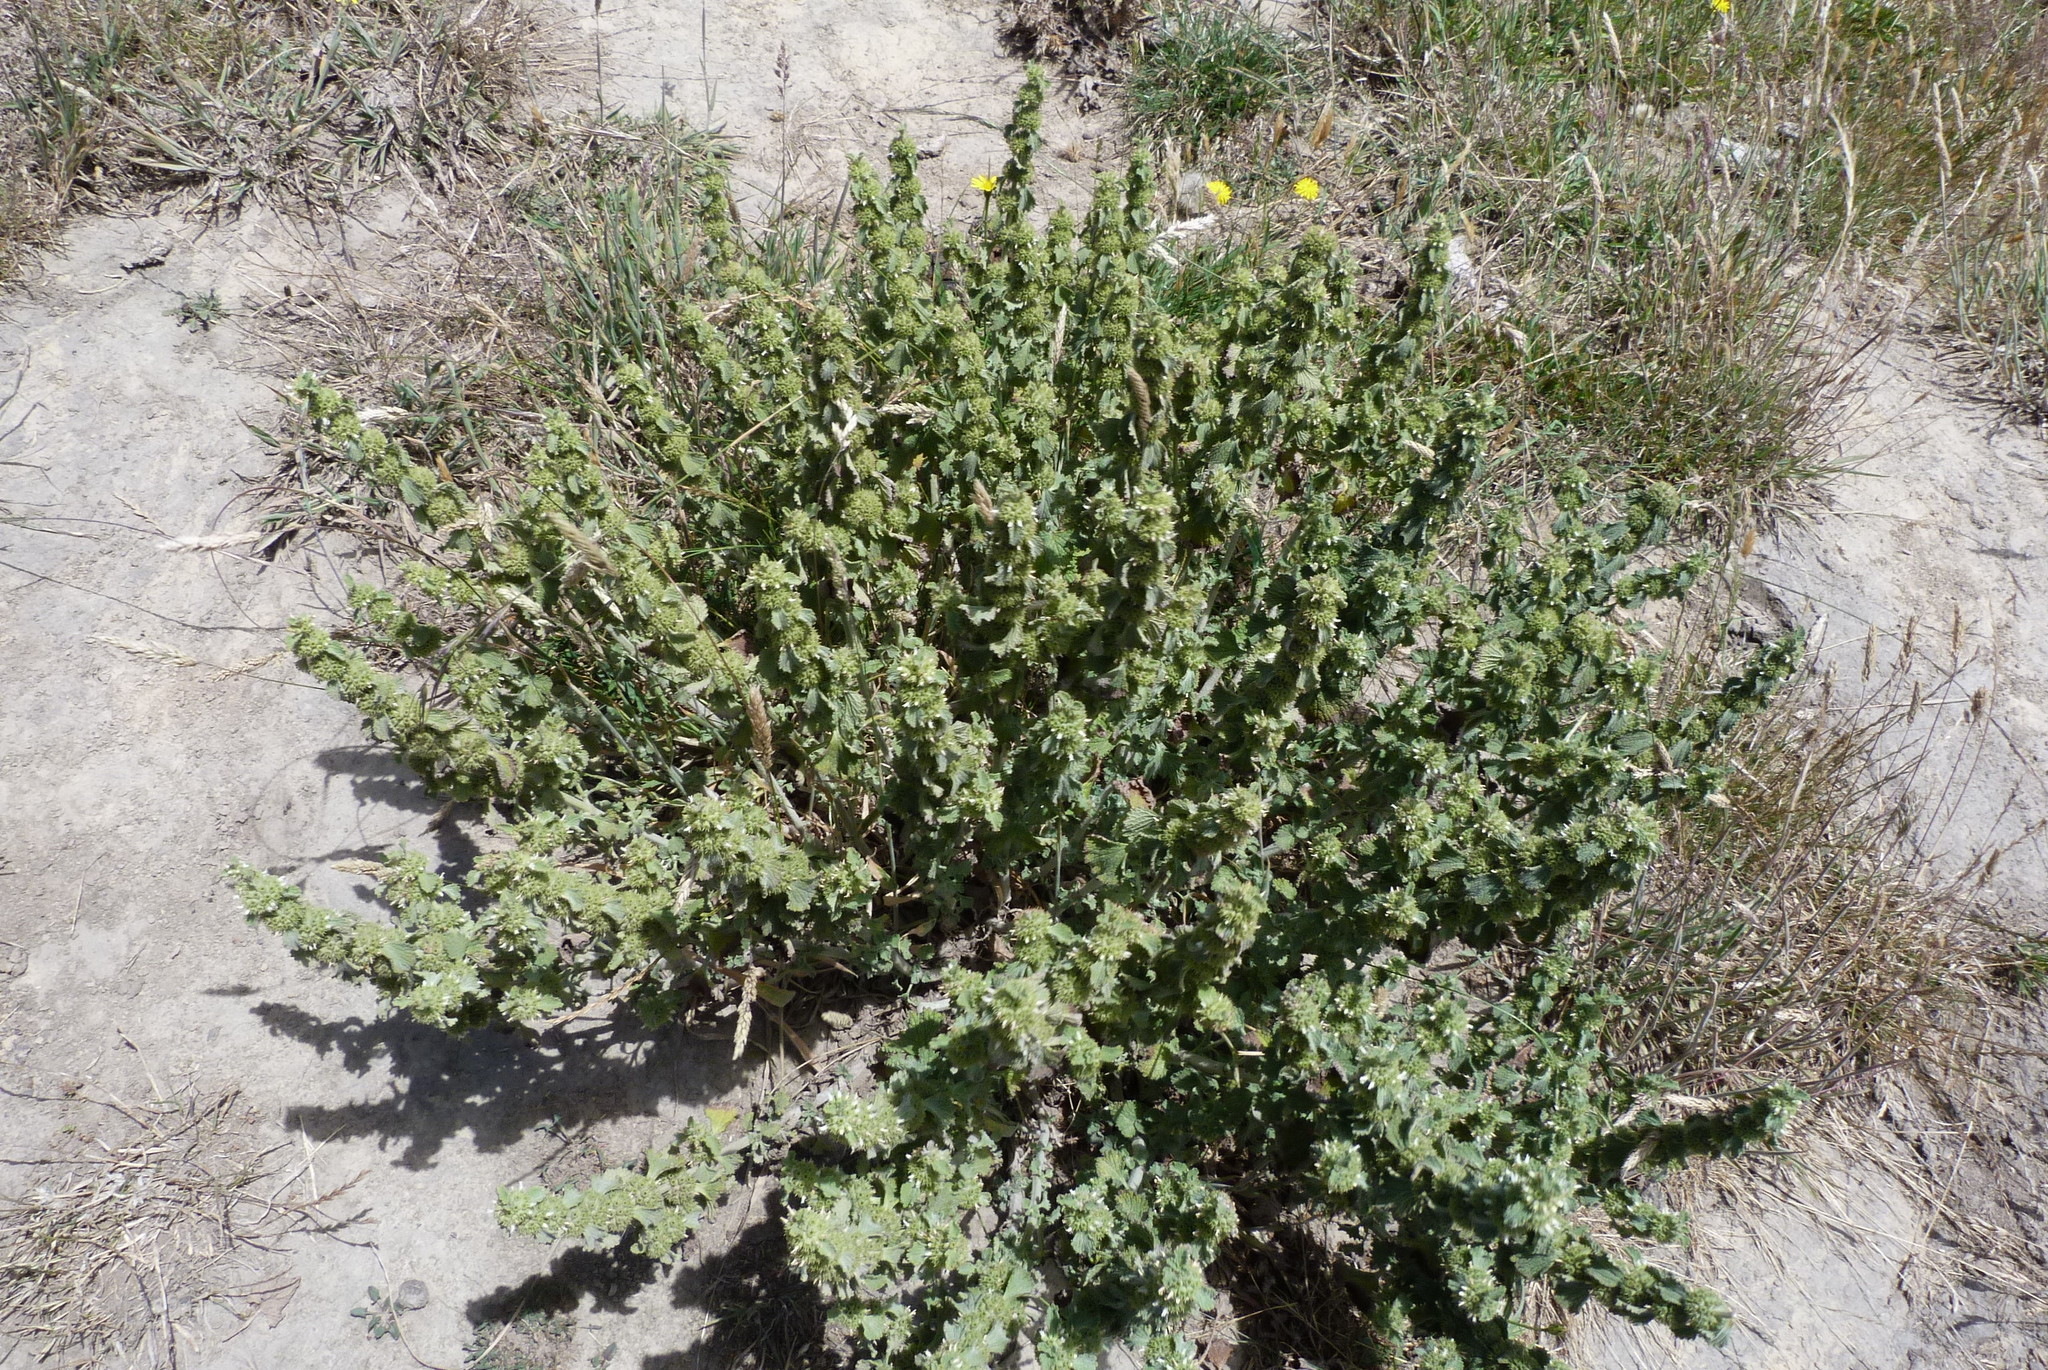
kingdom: Plantae
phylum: Tracheophyta
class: Magnoliopsida
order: Lamiales
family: Lamiaceae
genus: Marrubium
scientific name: Marrubium vulgare
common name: Horehound
